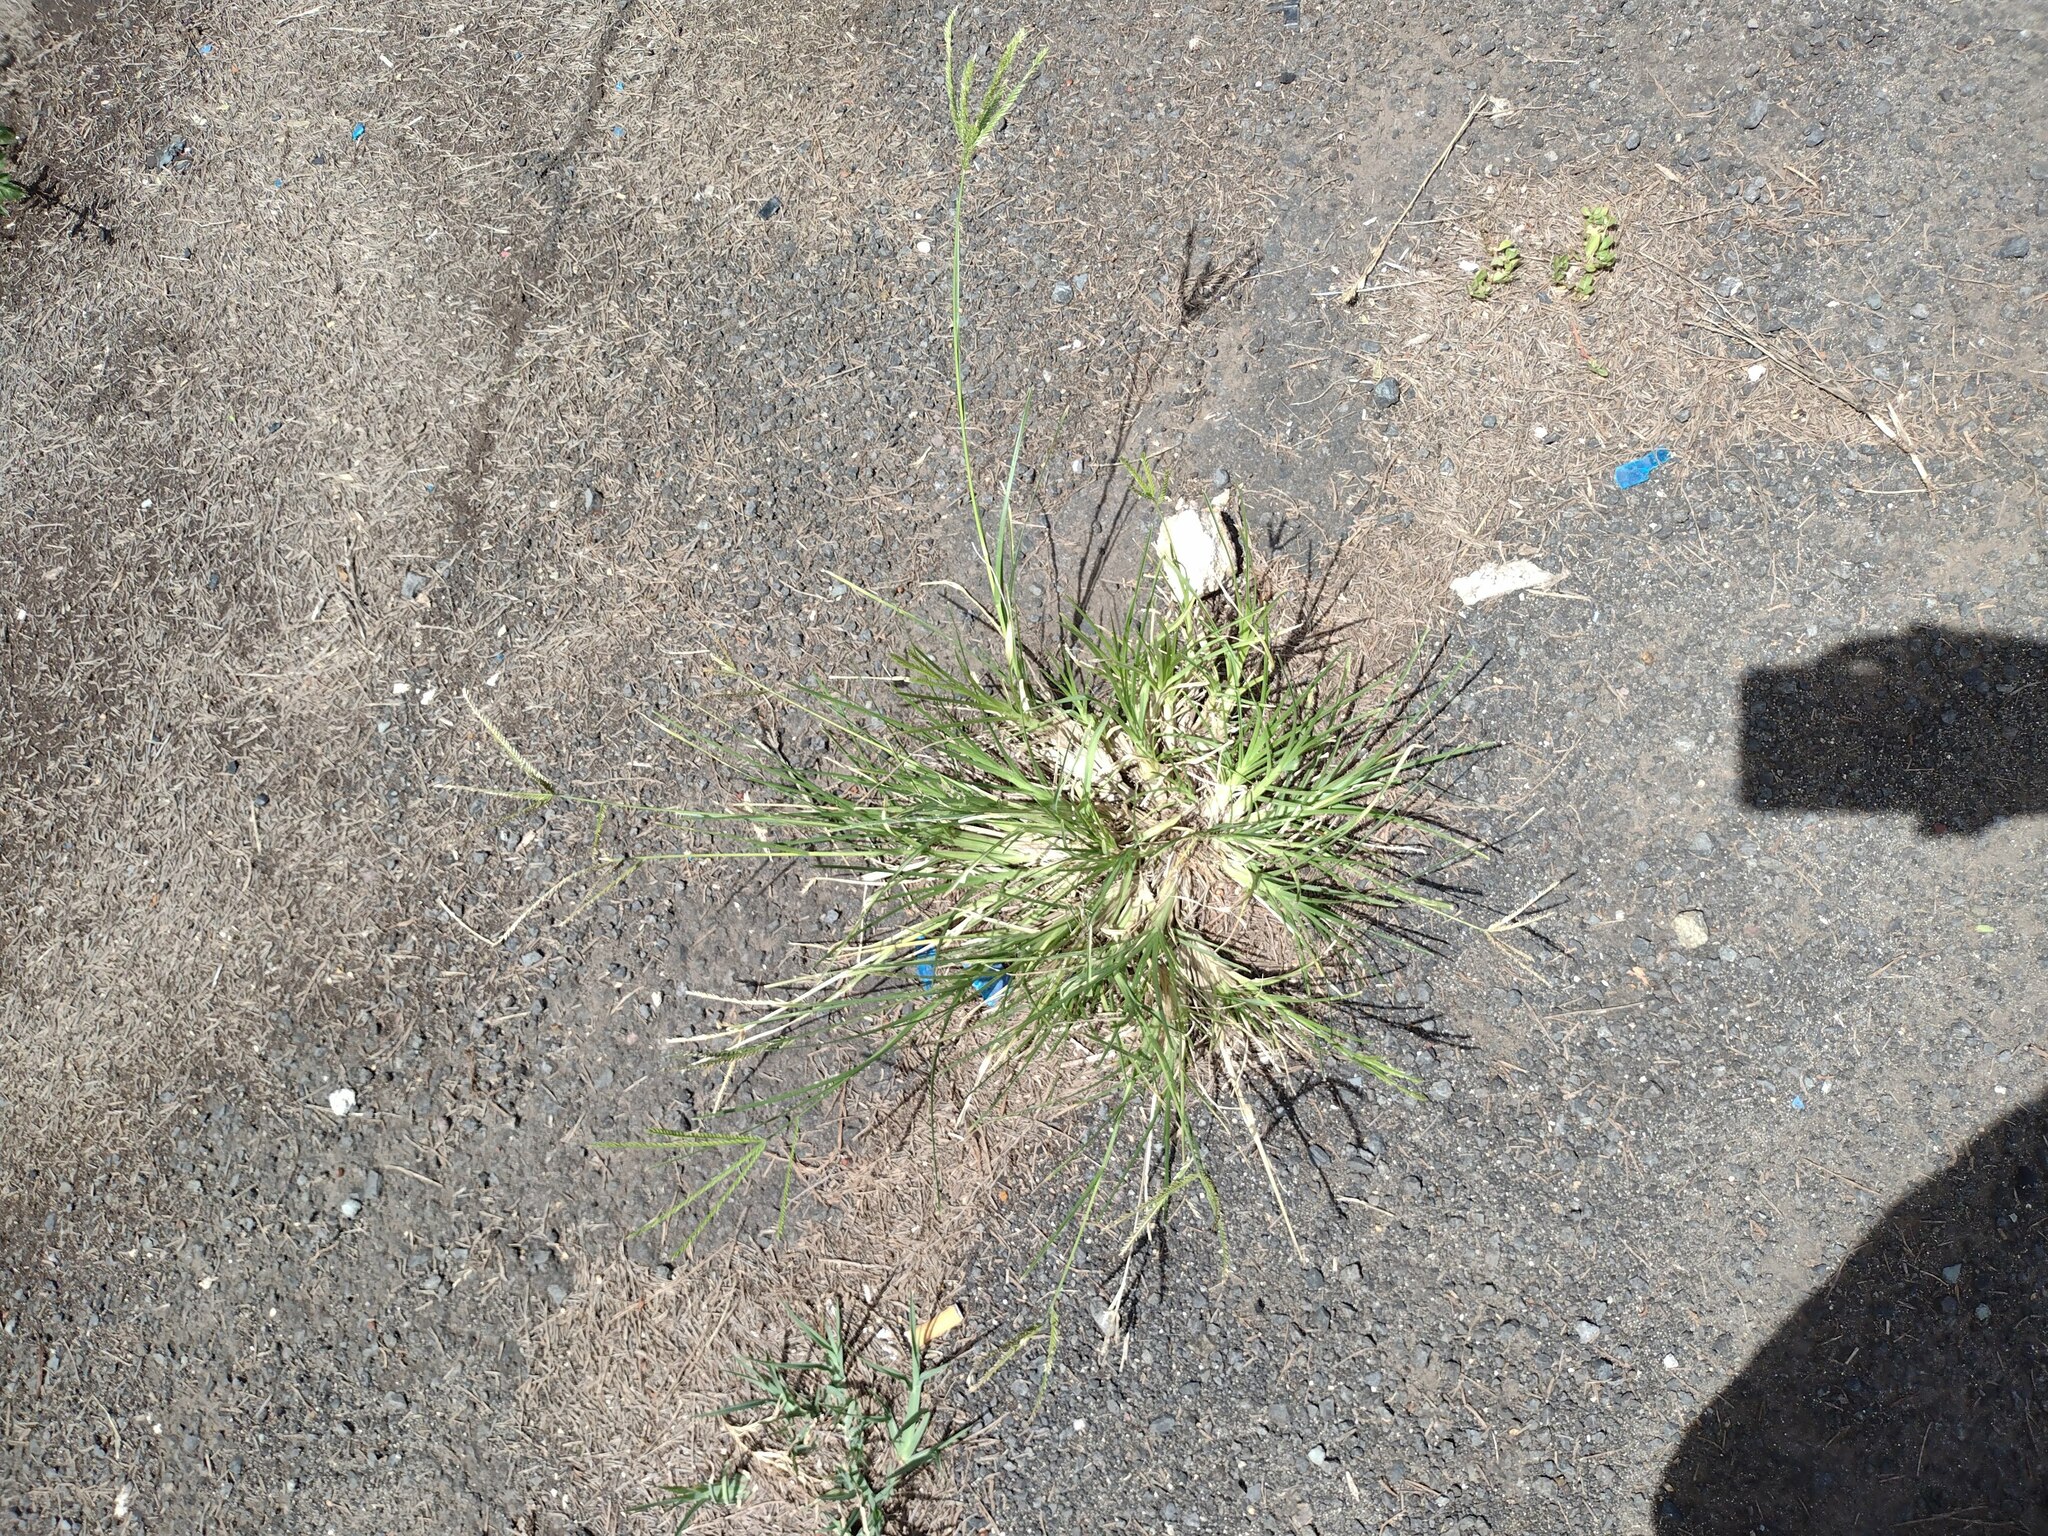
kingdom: Plantae
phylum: Tracheophyta
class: Liliopsida
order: Poales
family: Poaceae
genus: Eleusine
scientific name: Eleusine indica
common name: Yard-grass
